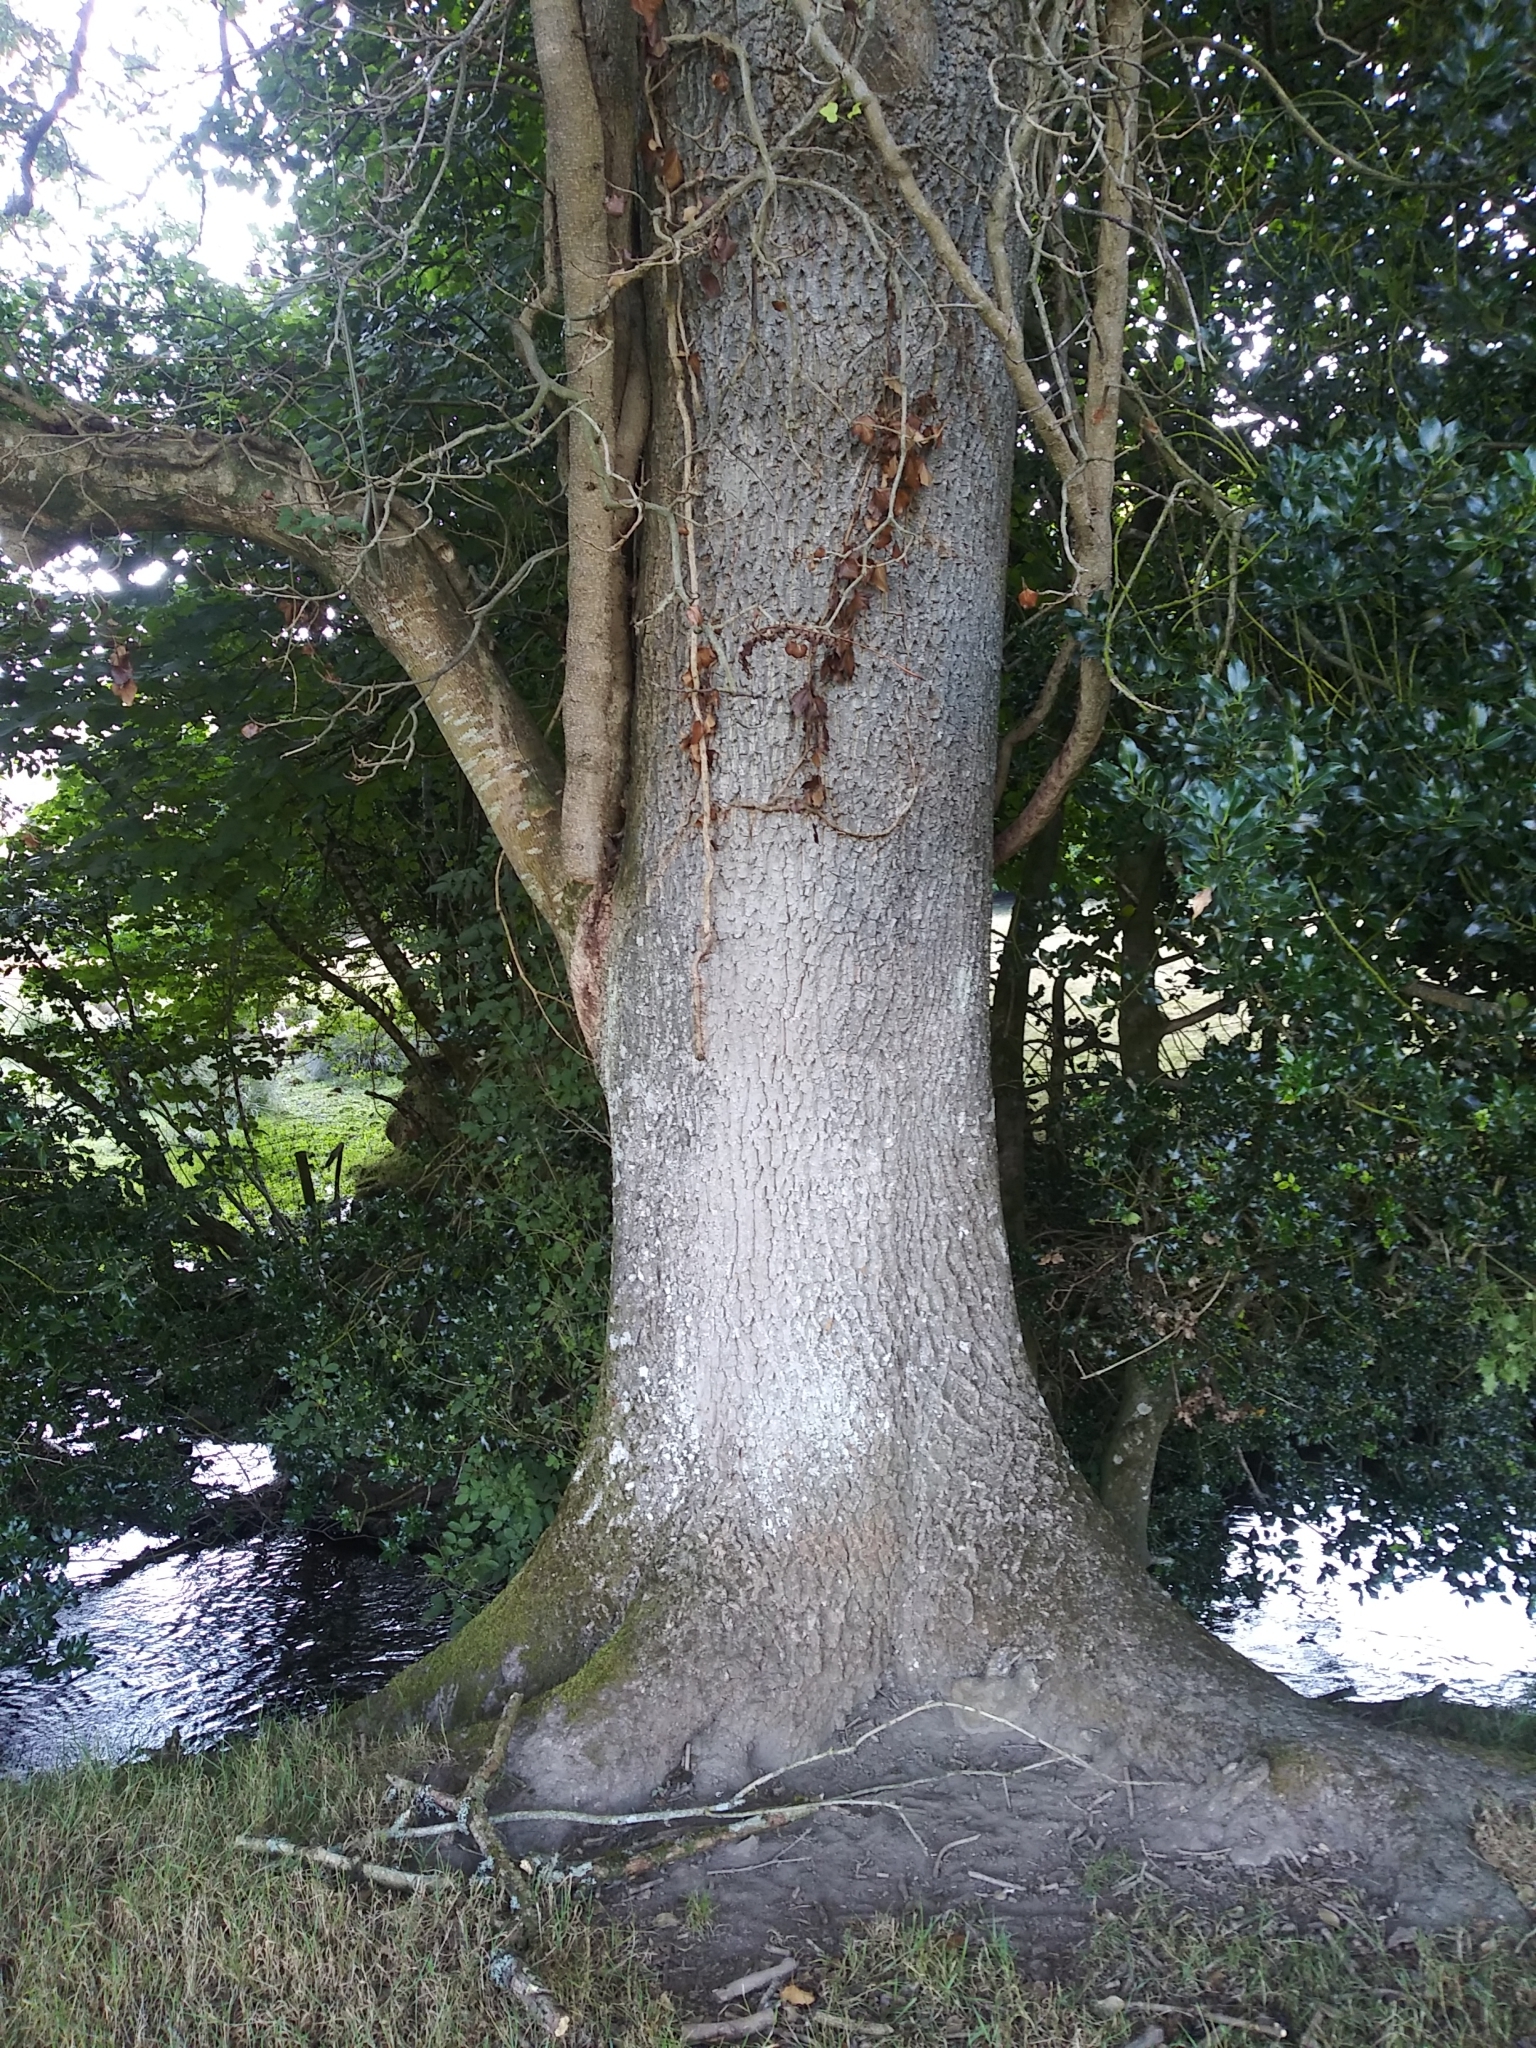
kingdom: Plantae
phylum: Tracheophyta
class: Magnoliopsida
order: Lamiales
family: Oleaceae
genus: Fraxinus
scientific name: Fraxinus excelsior
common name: European ash
